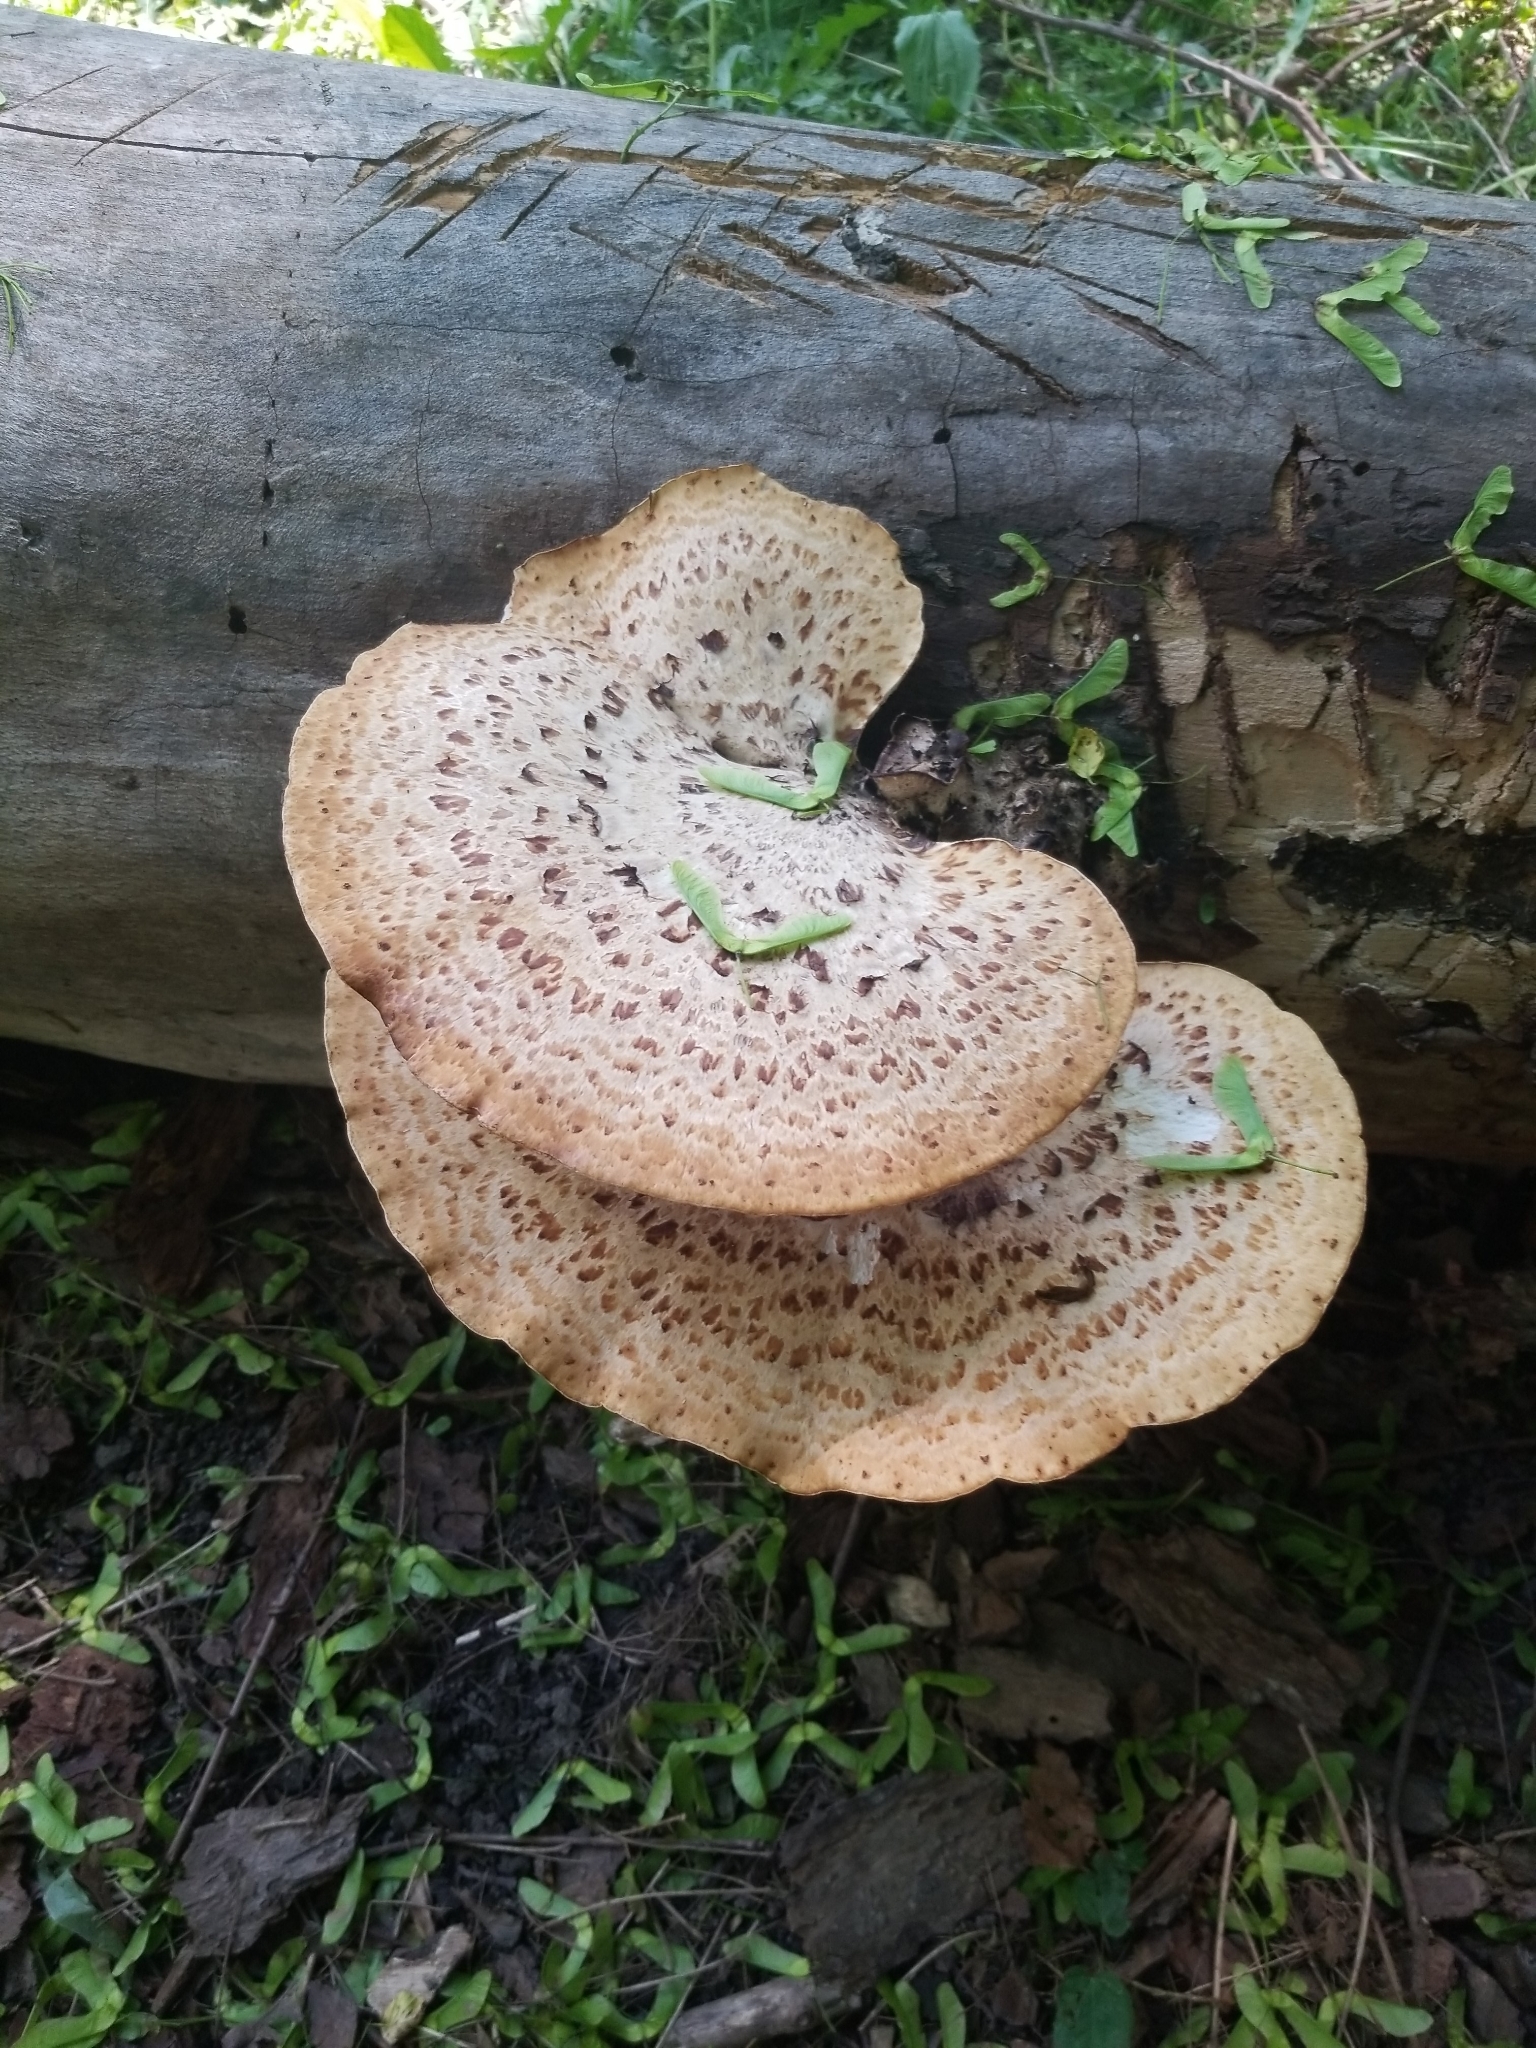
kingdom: Fungi
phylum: Basidiomycota
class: Agaricomycetes
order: Polyporales
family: Polyporaceae
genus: Cerioporus
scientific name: Cerioporus squamosus
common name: Dryad's saddle
